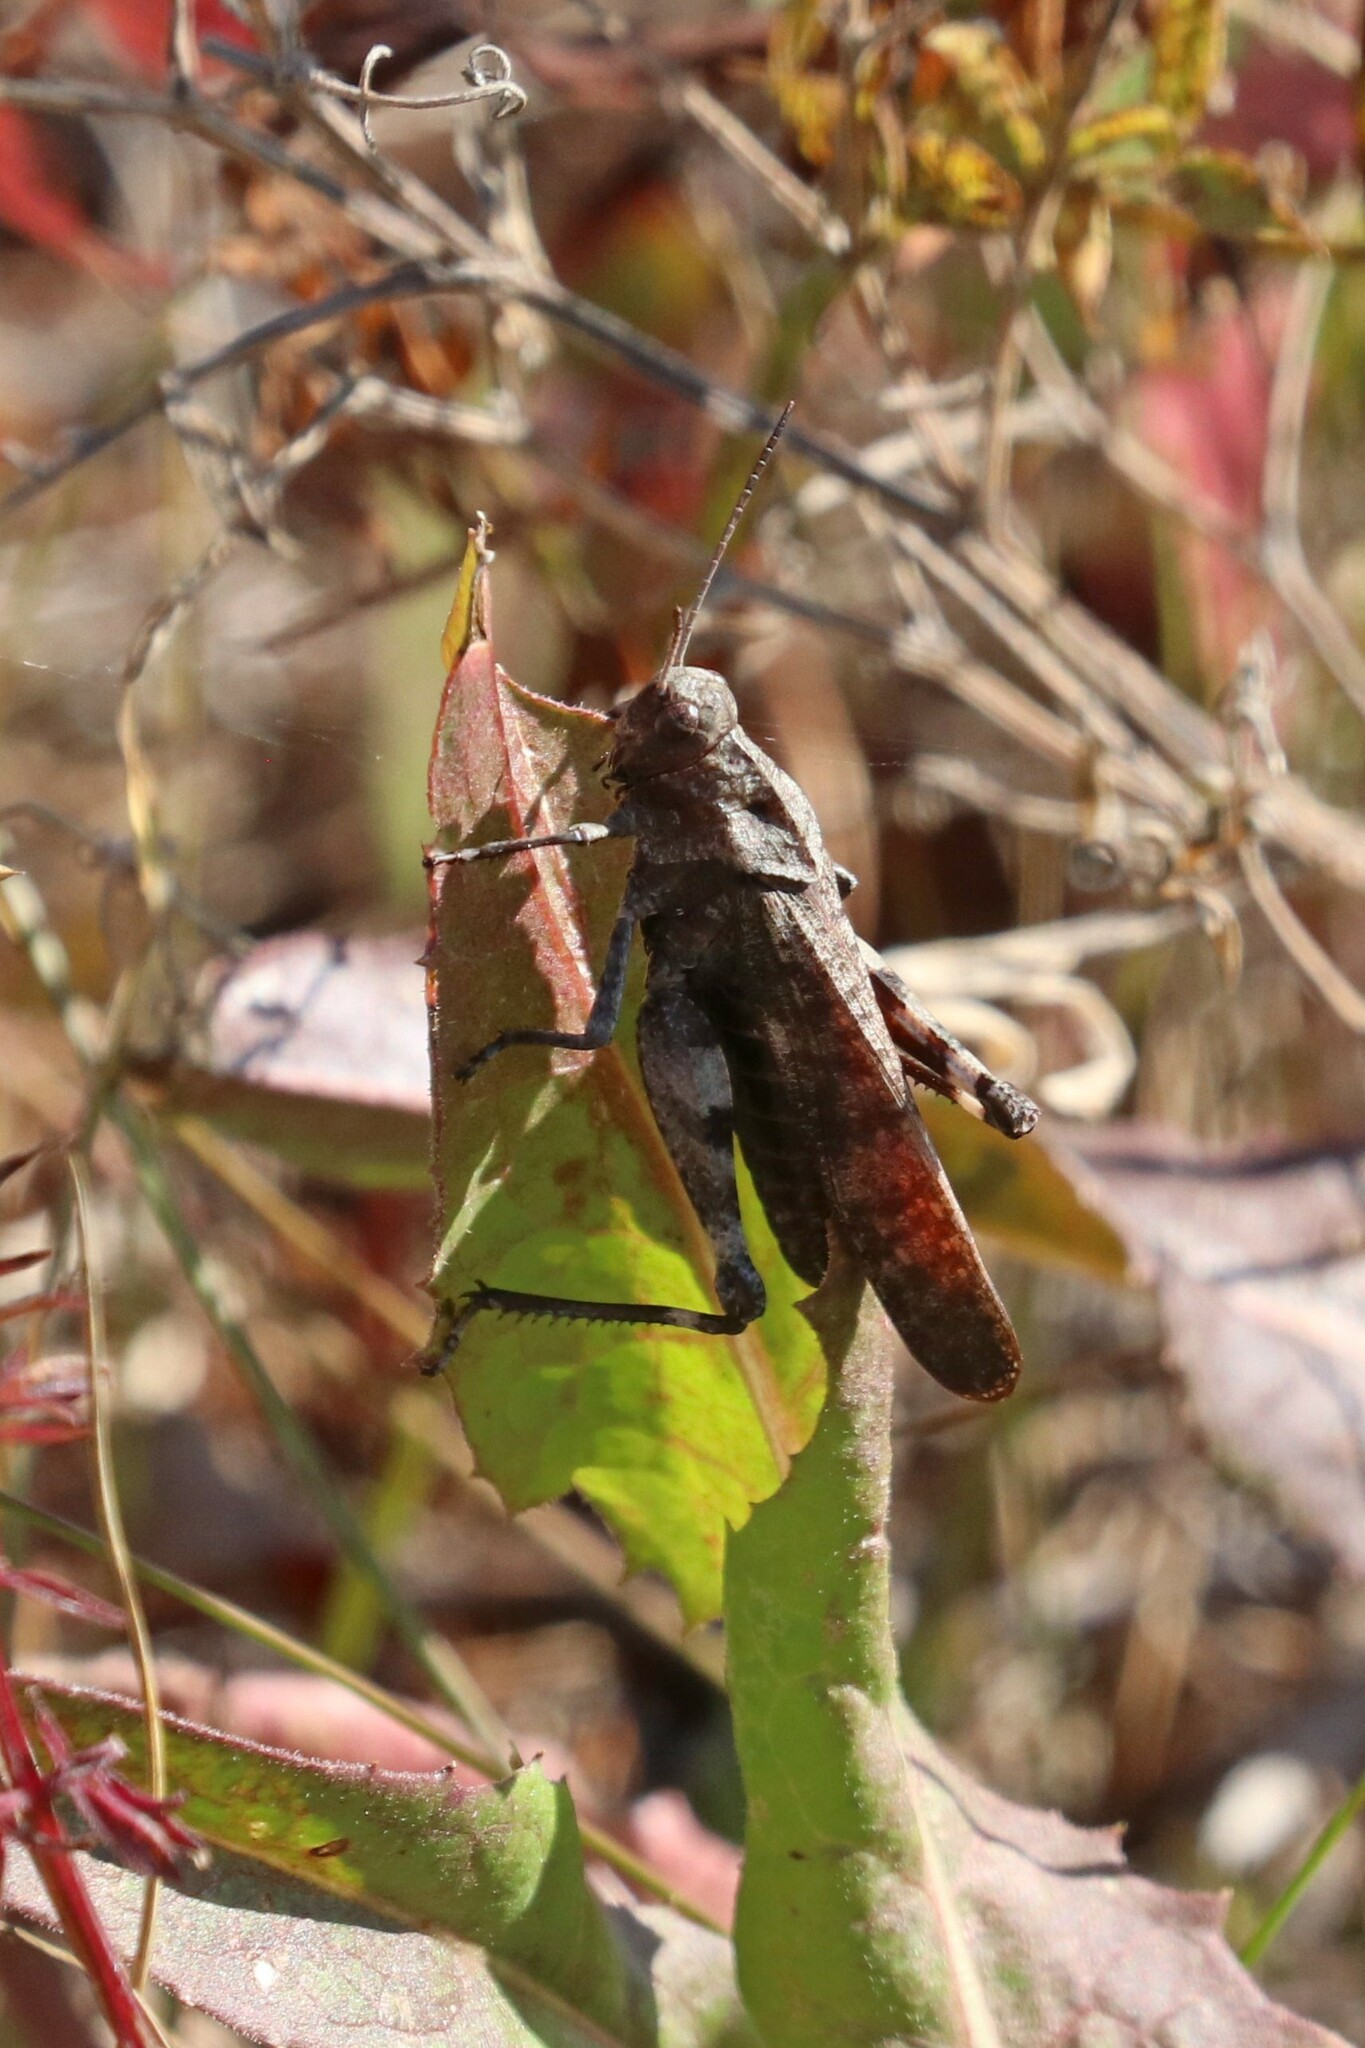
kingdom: Animalia
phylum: Arthropoda
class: Insecta
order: Orthoptera
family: Acrididae
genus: Psophus
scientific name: Psophus stridulus
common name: Rattle grasshopper
